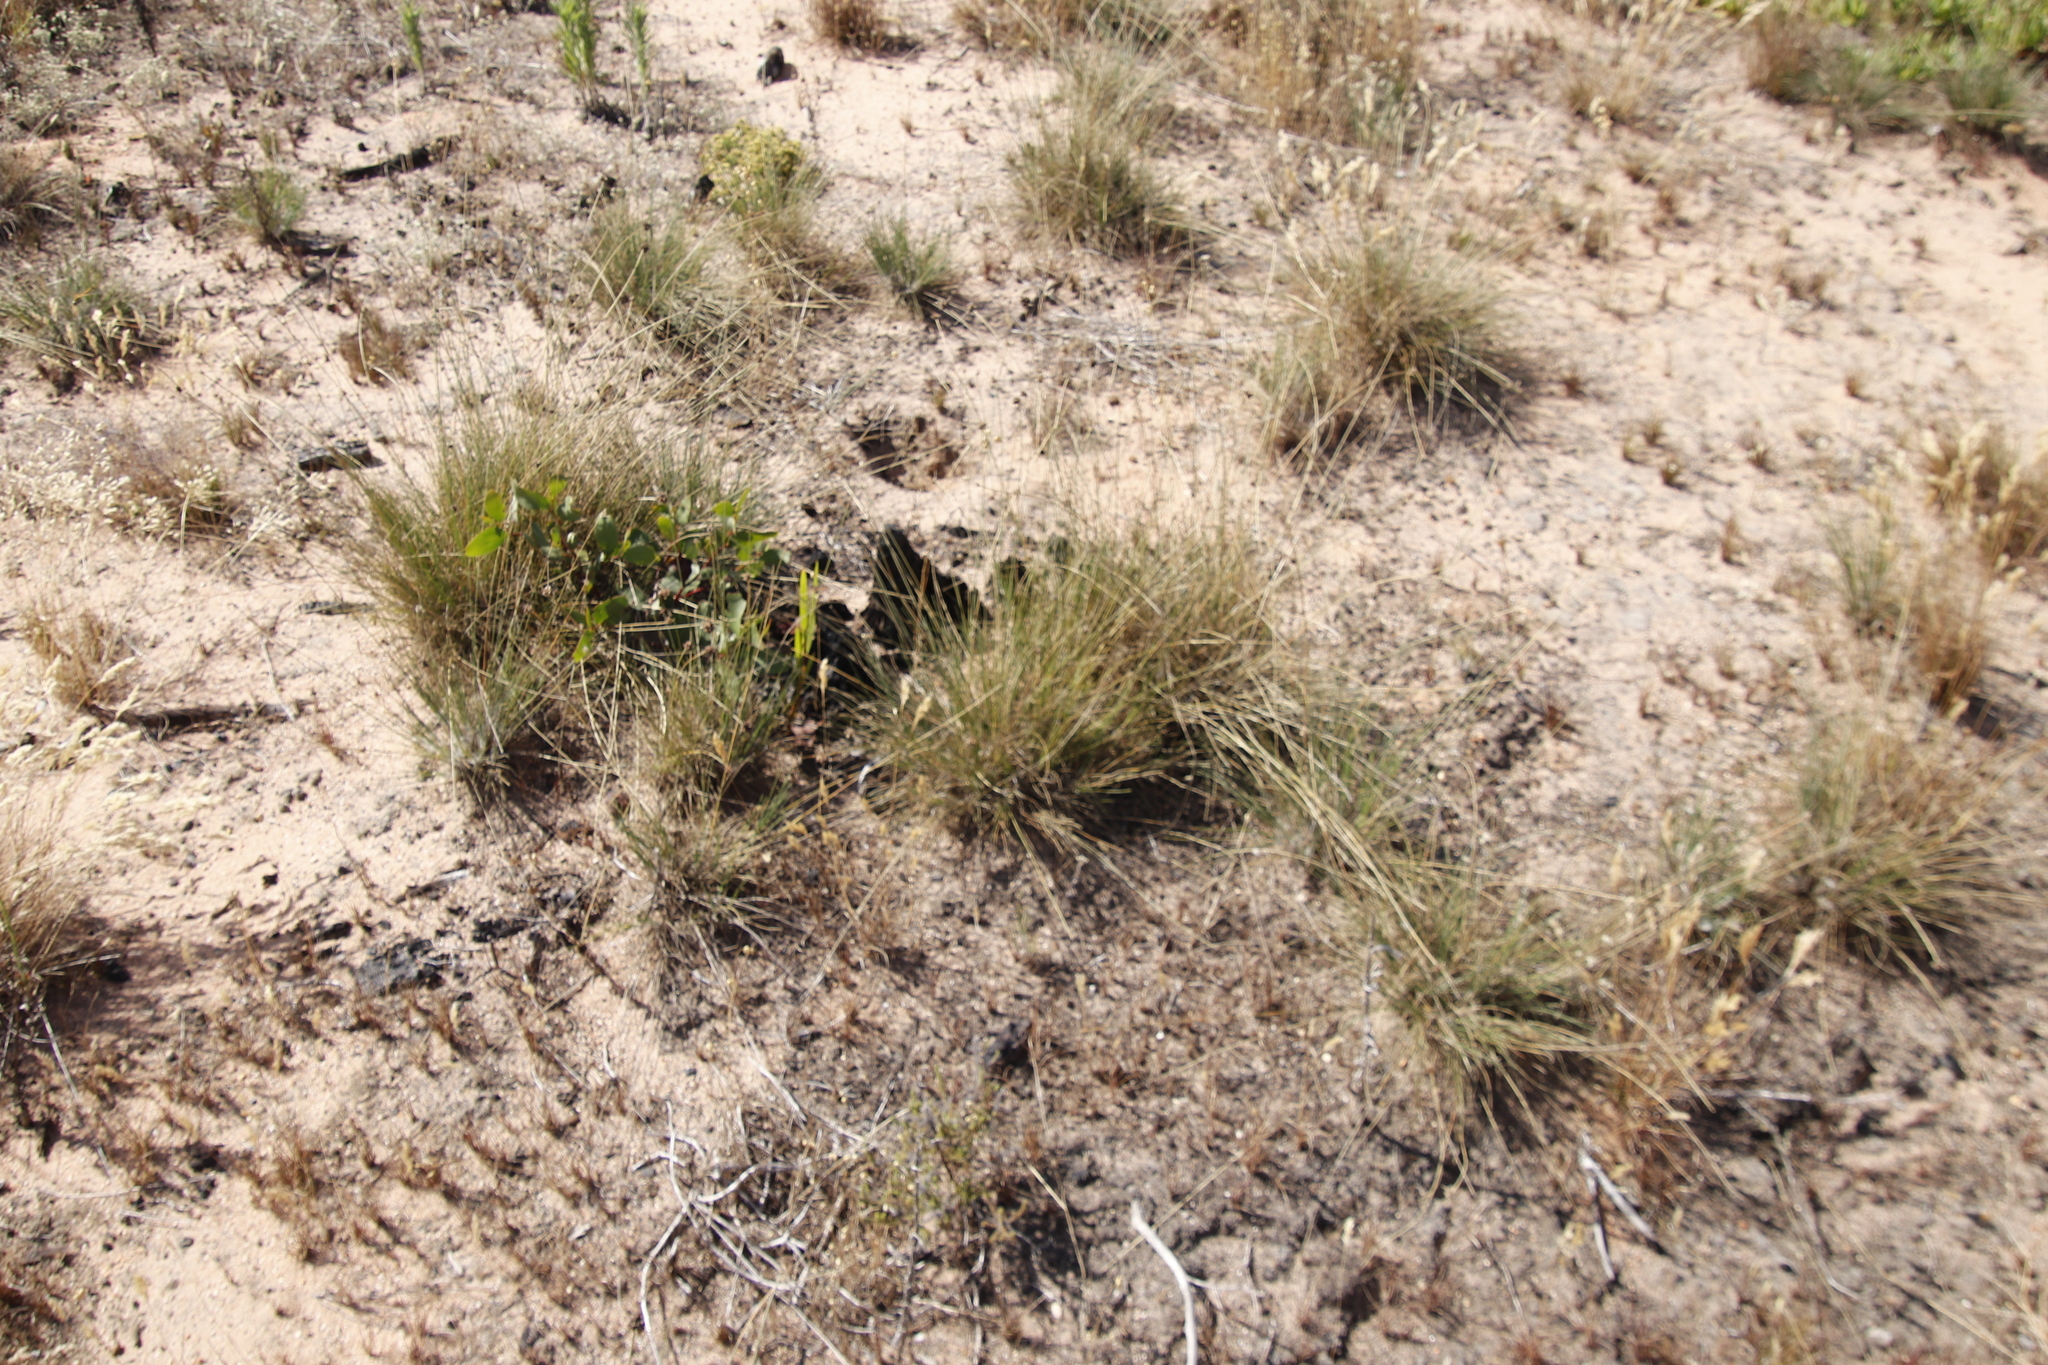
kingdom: Plantae
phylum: Tracheophyta
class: Liliopsida
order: Poales
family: Cyperaceae
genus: Ficinia
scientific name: Ficinia paradoxa
